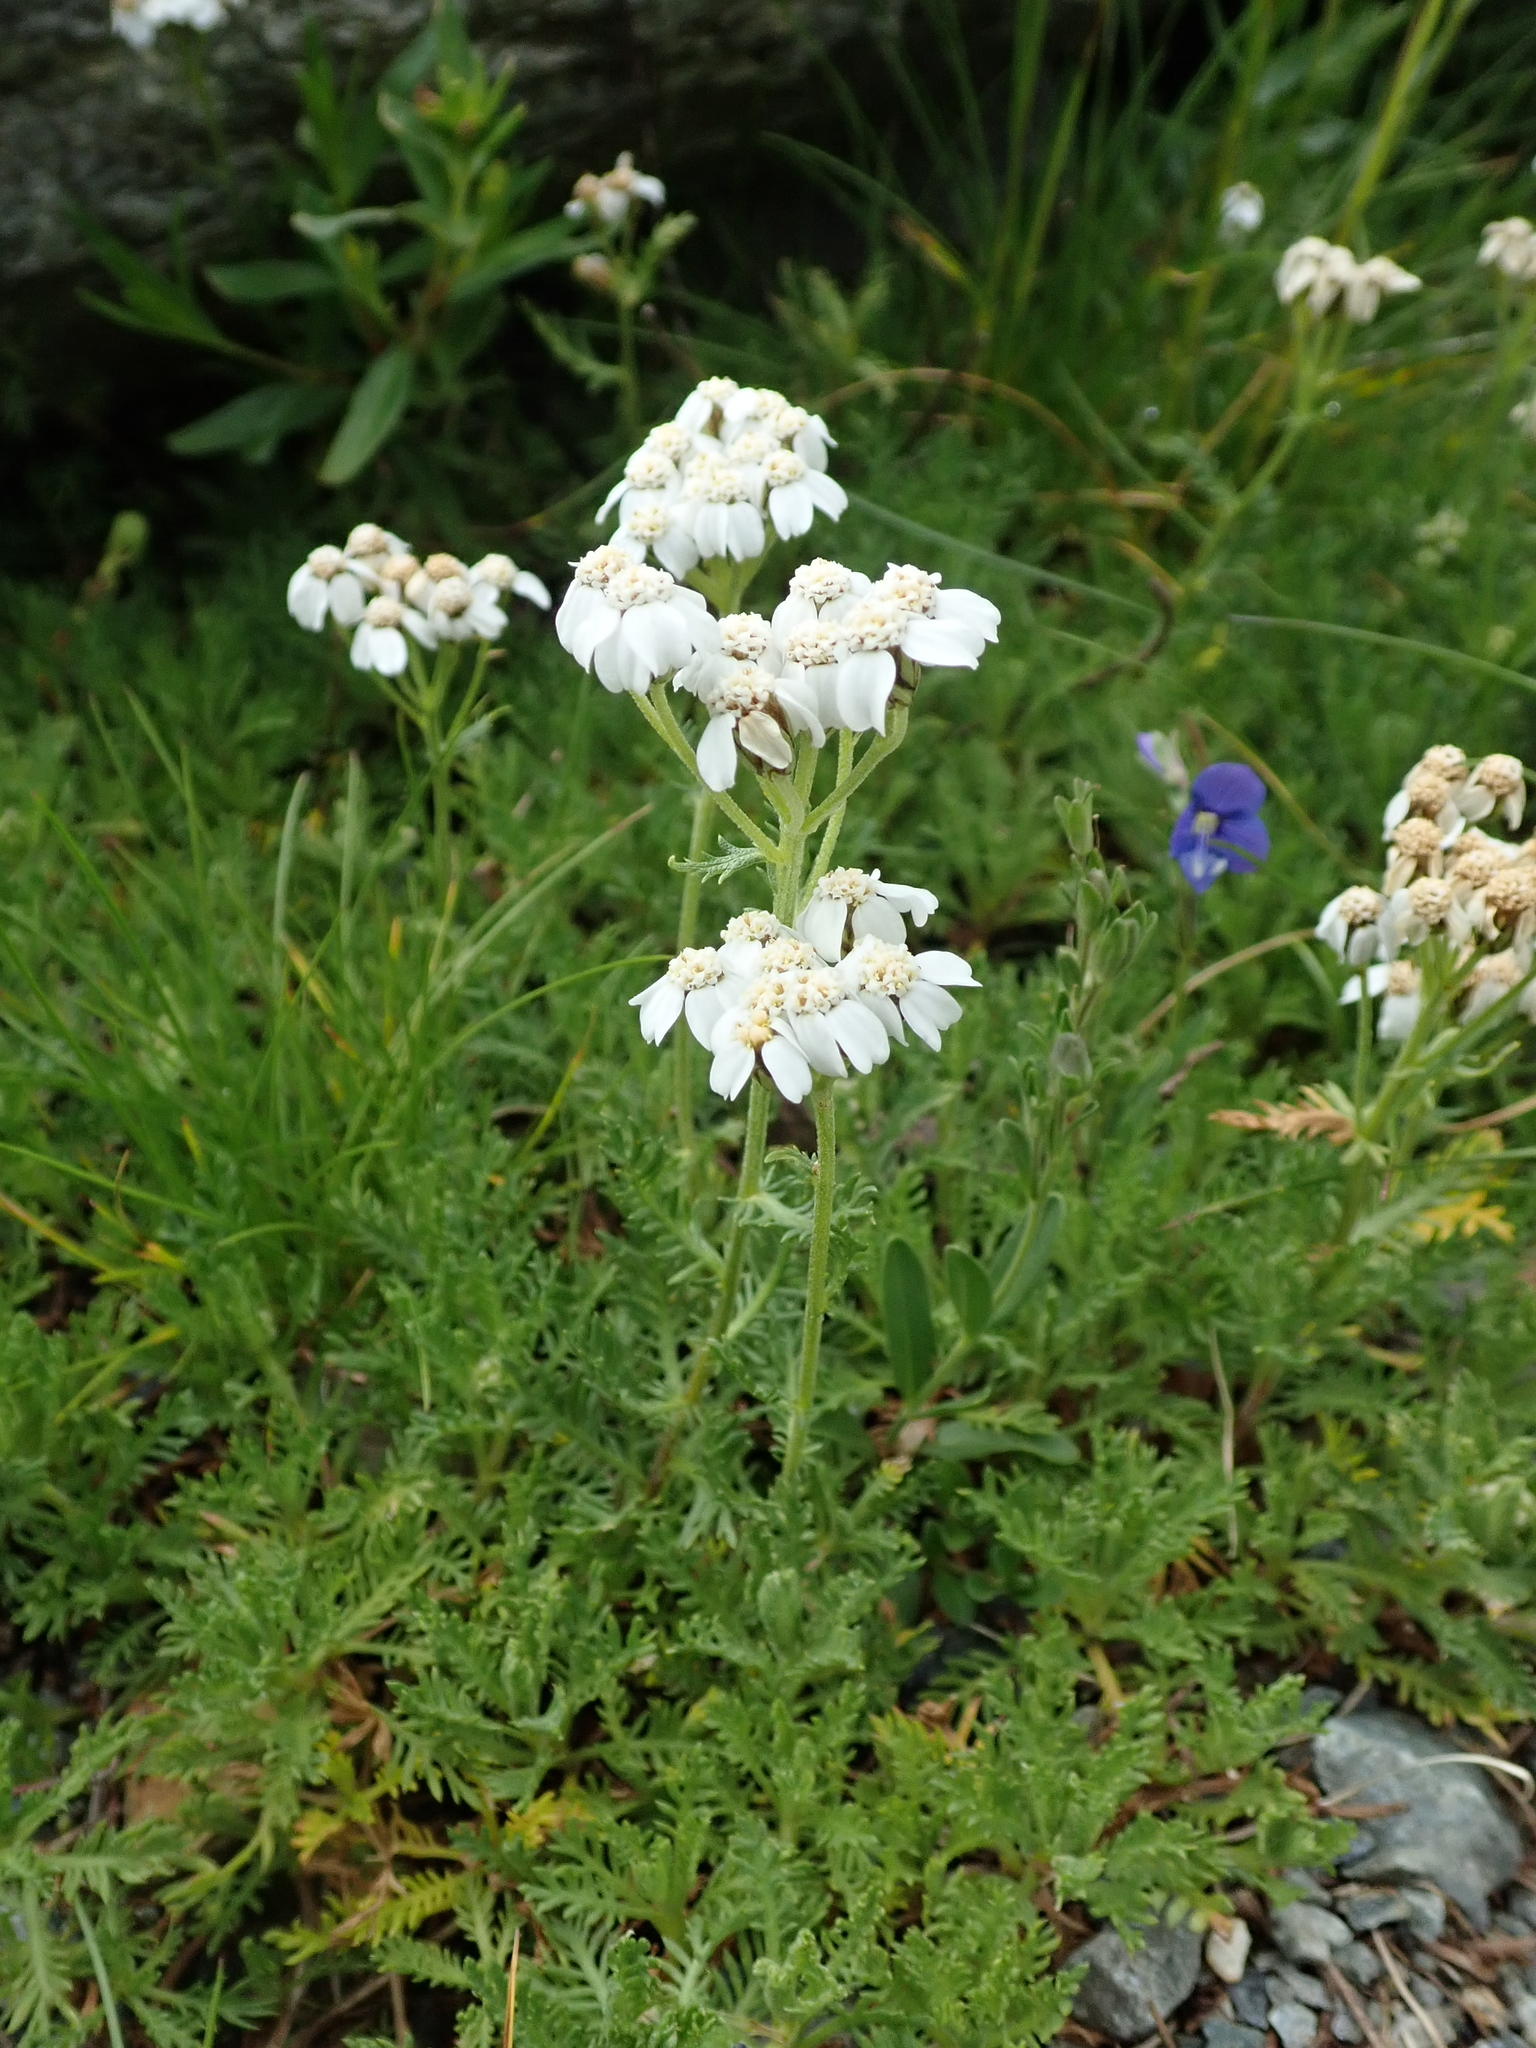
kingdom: Plantae
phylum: Tracheophyta
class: Magnoliopsida
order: Asterales
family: Asteraceae
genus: Achillea
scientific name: Achillea erba-rotta
